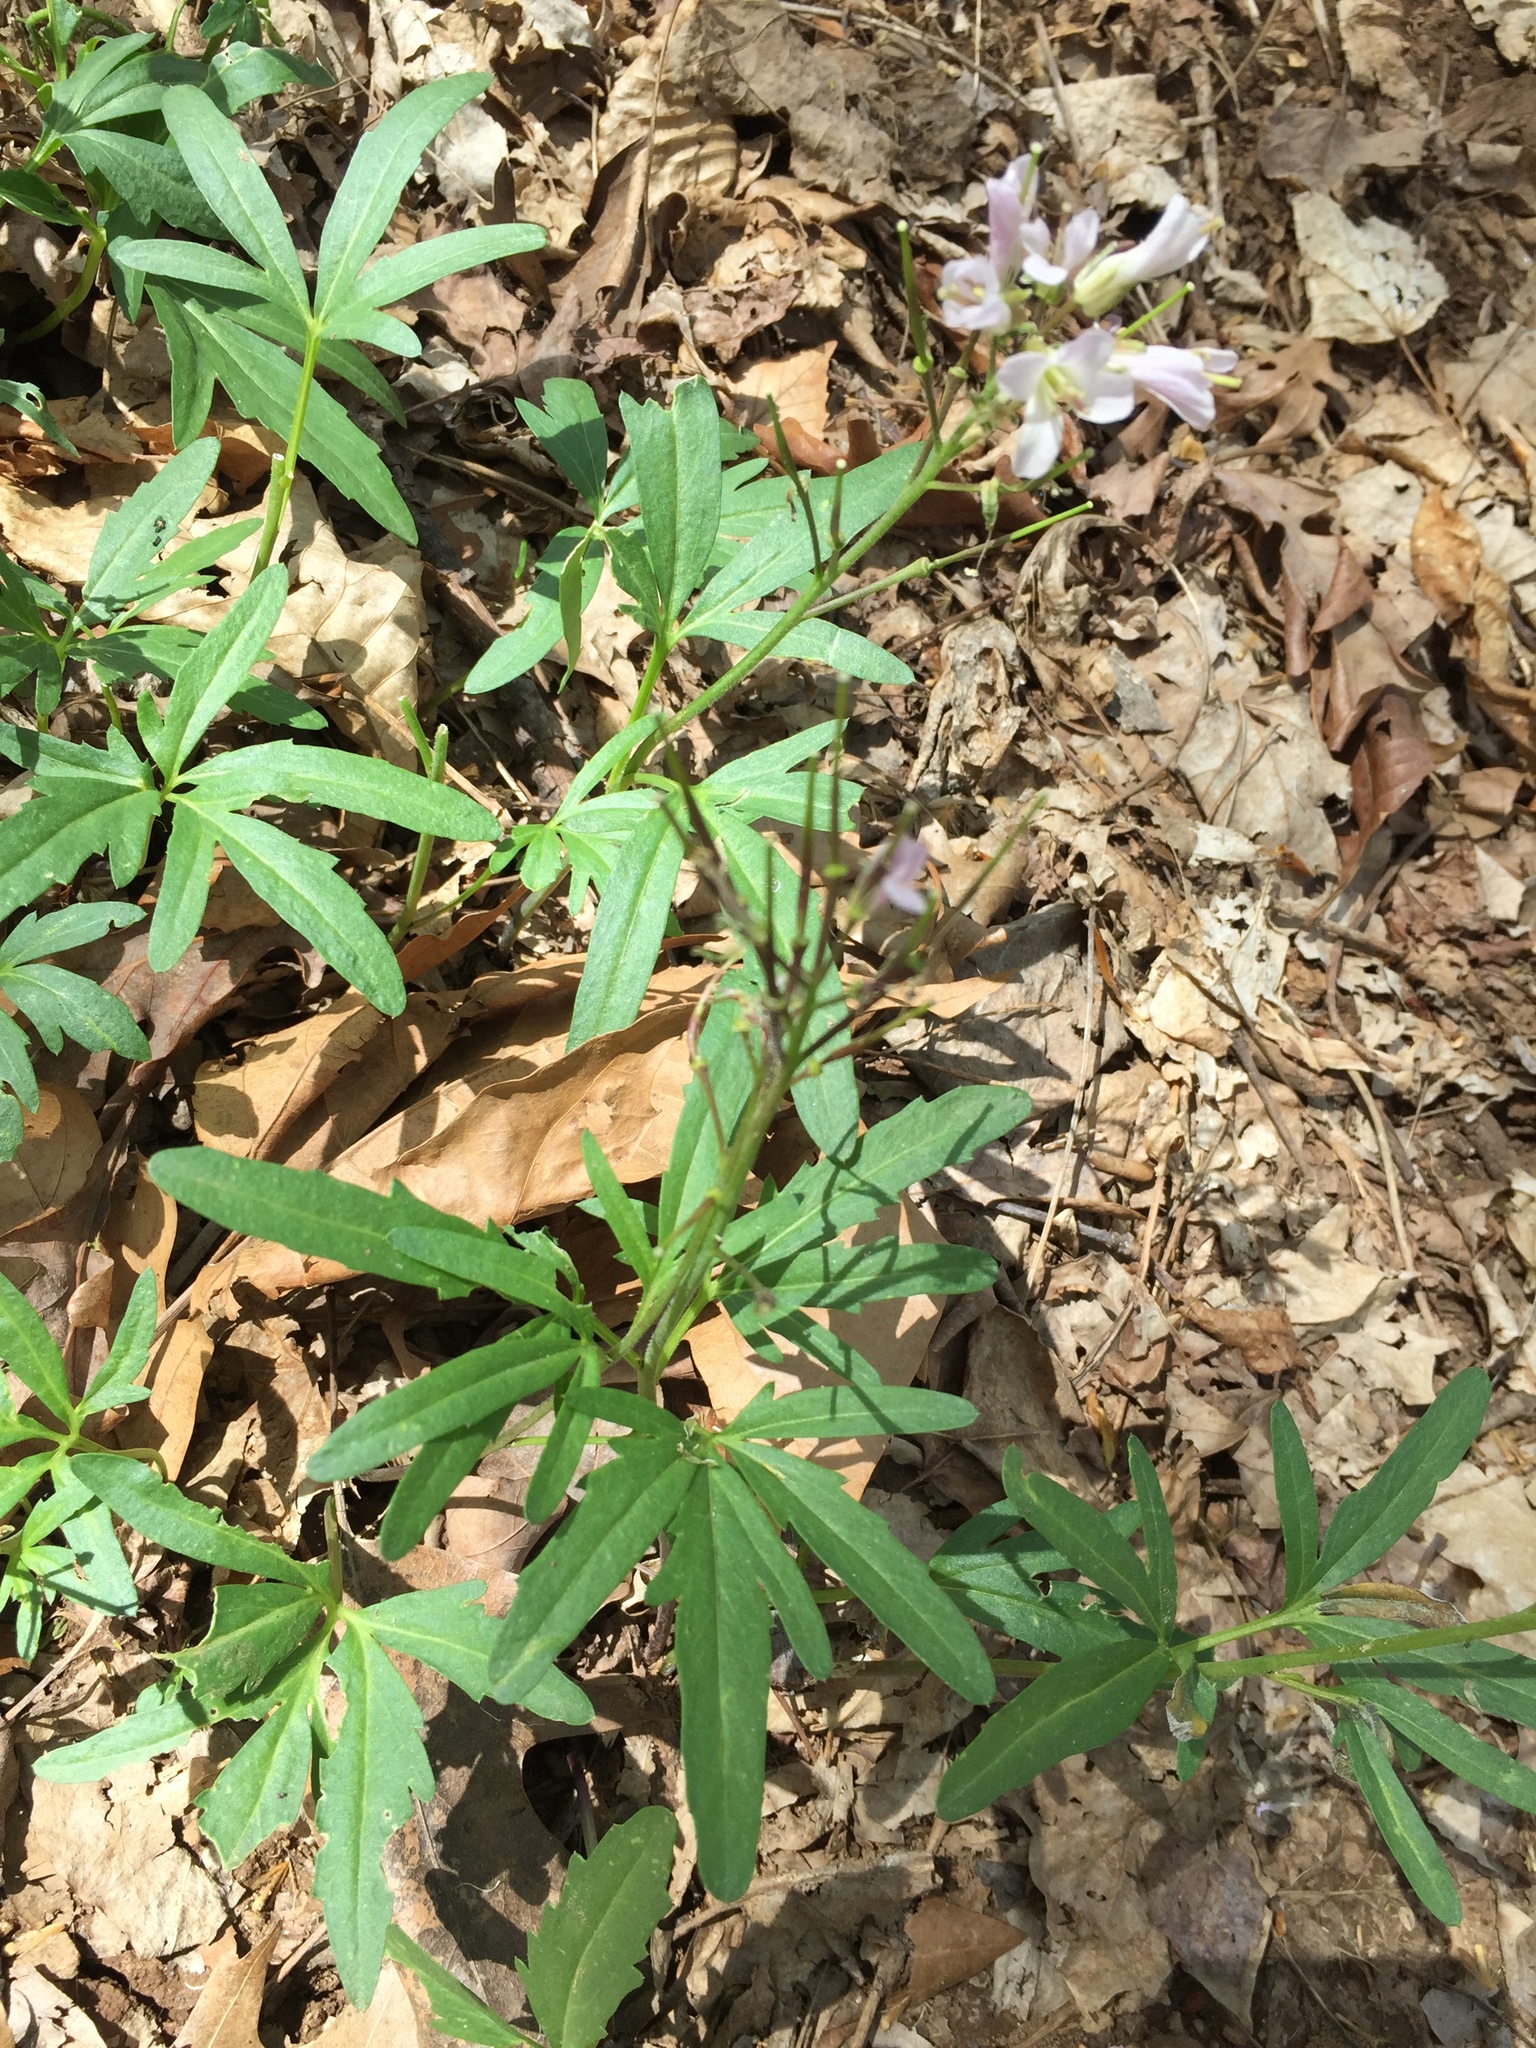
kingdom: Plantae
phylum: Tracheophyta
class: Magnoliopsida
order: Brassicales
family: Brassicaceae
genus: Cardamine
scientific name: Cardamine concatenata
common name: Cut-leaf toothcup
